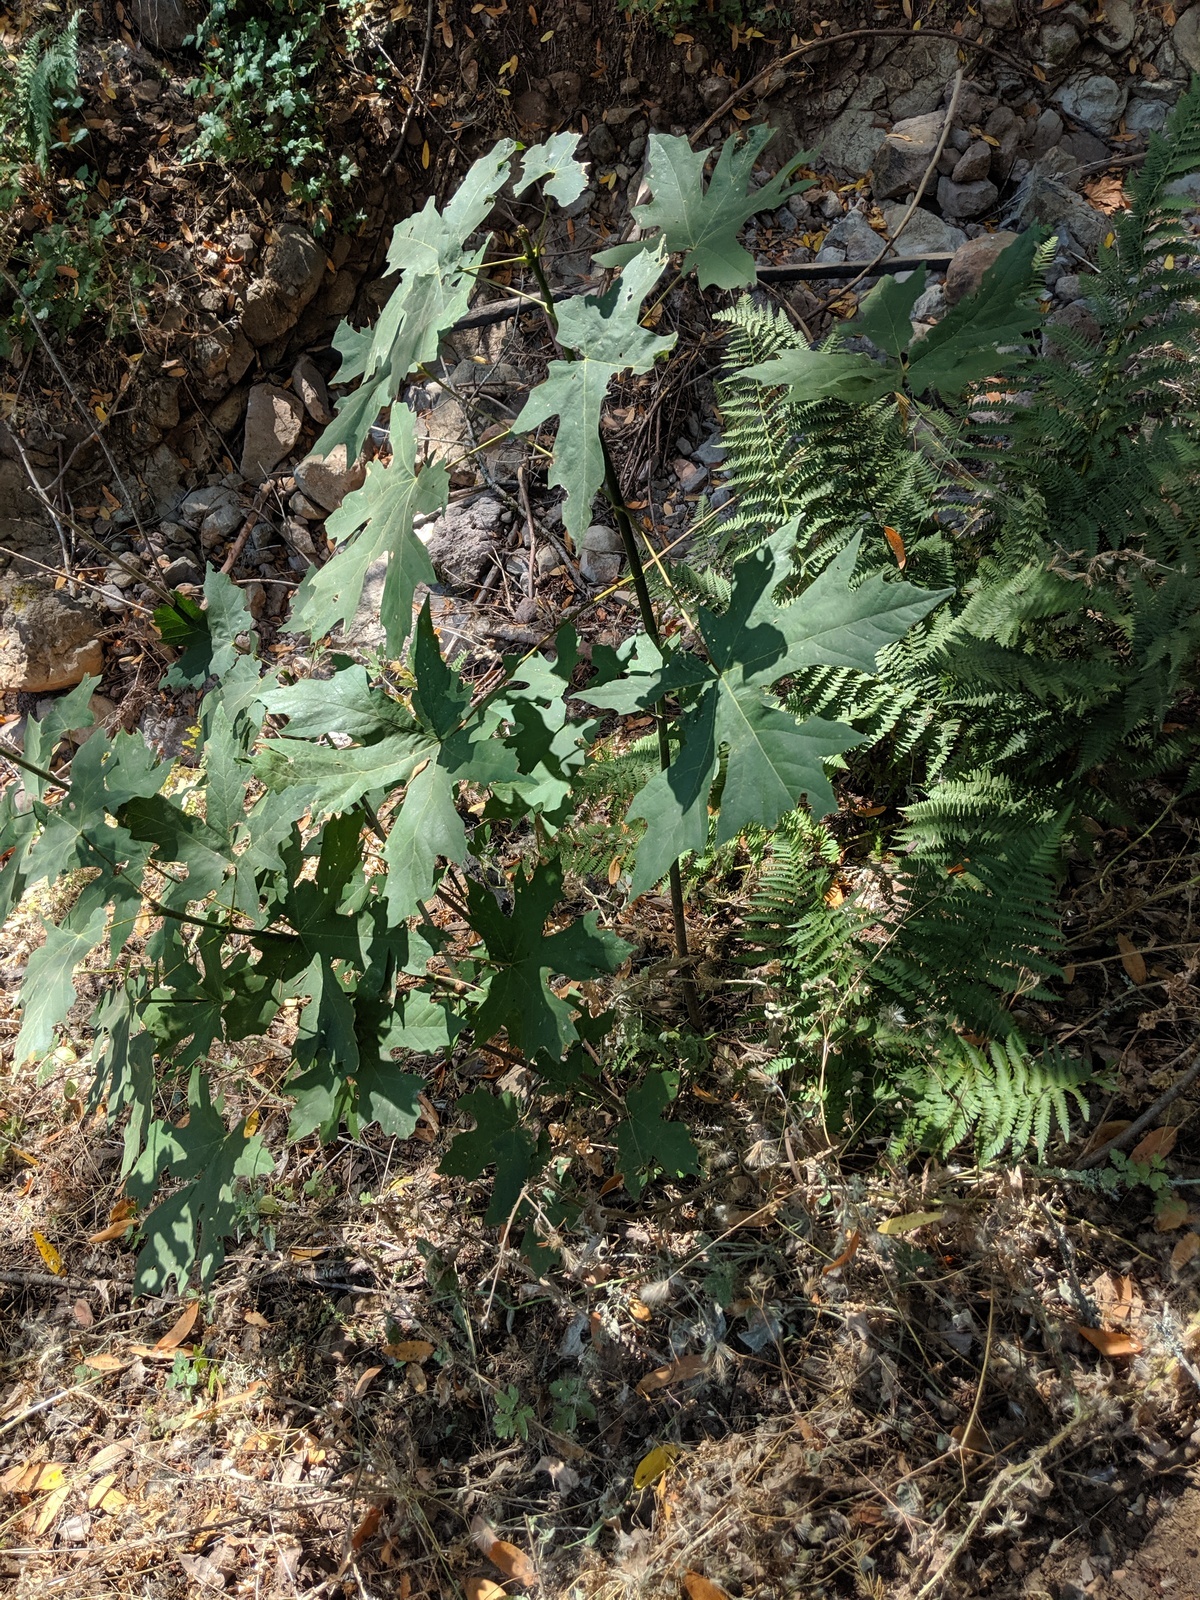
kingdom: Plantae
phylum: Tracheophyta
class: Magnoliopsida
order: Sapindales
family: Sapindaceae
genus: Acer
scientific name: Acer macrophyllum
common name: Oregon maple
